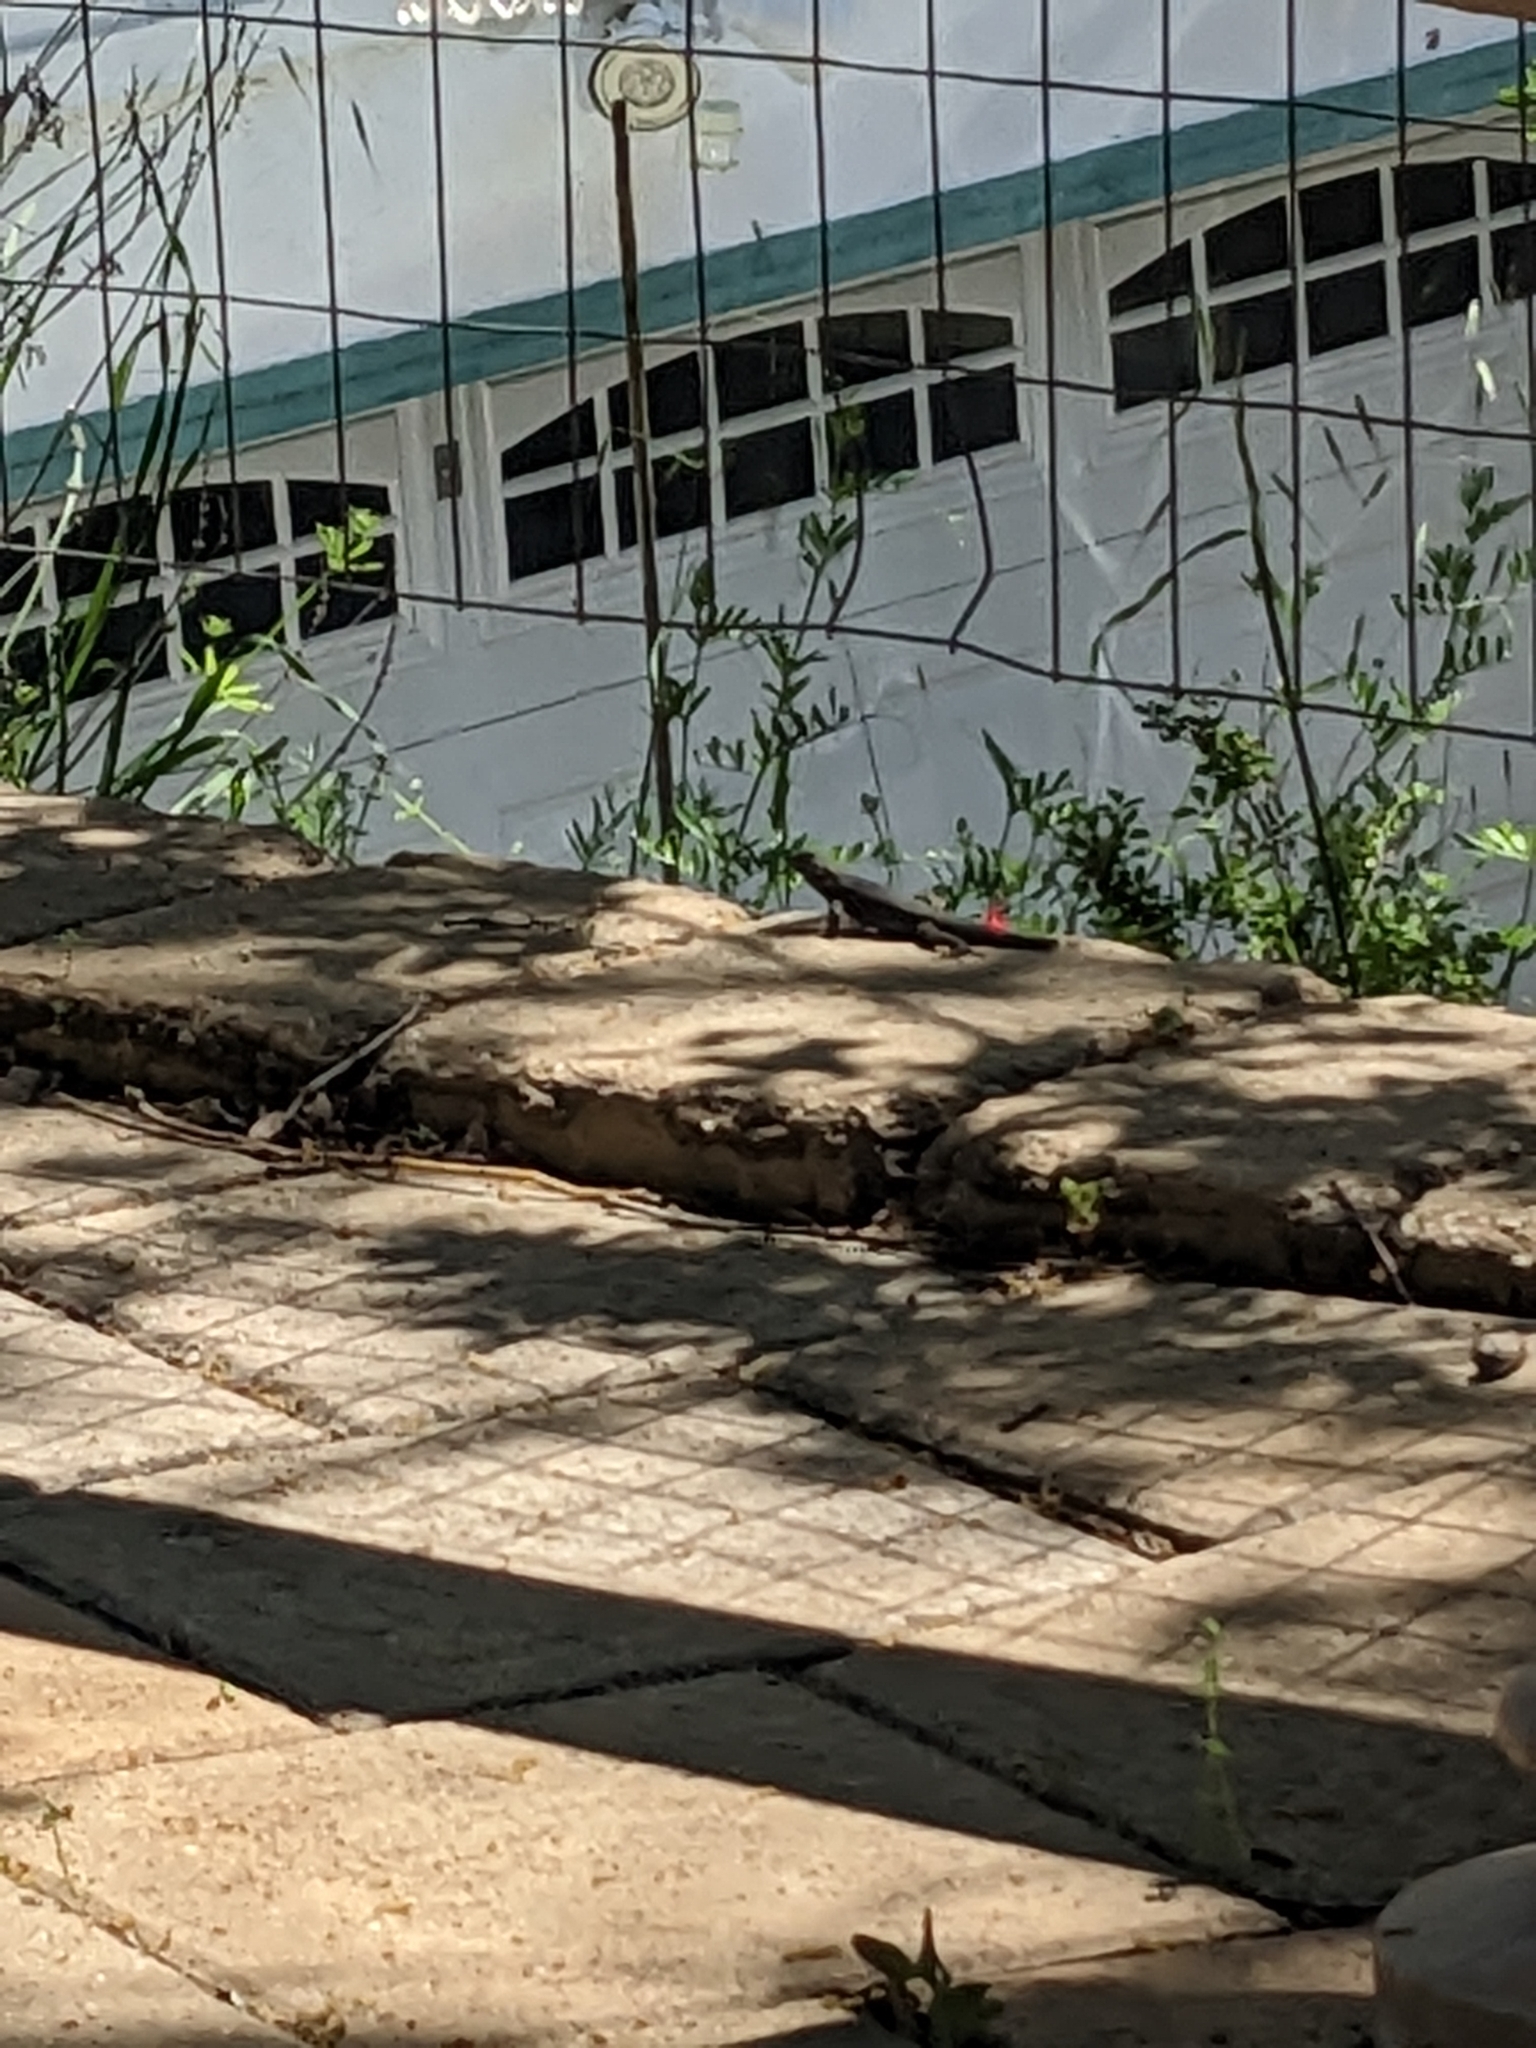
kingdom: Animalia
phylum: Chordata
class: Squamata
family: Phrynosomatidae
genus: Sceloporus
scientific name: Sceloporus occidentalis
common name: Western fence lizard
